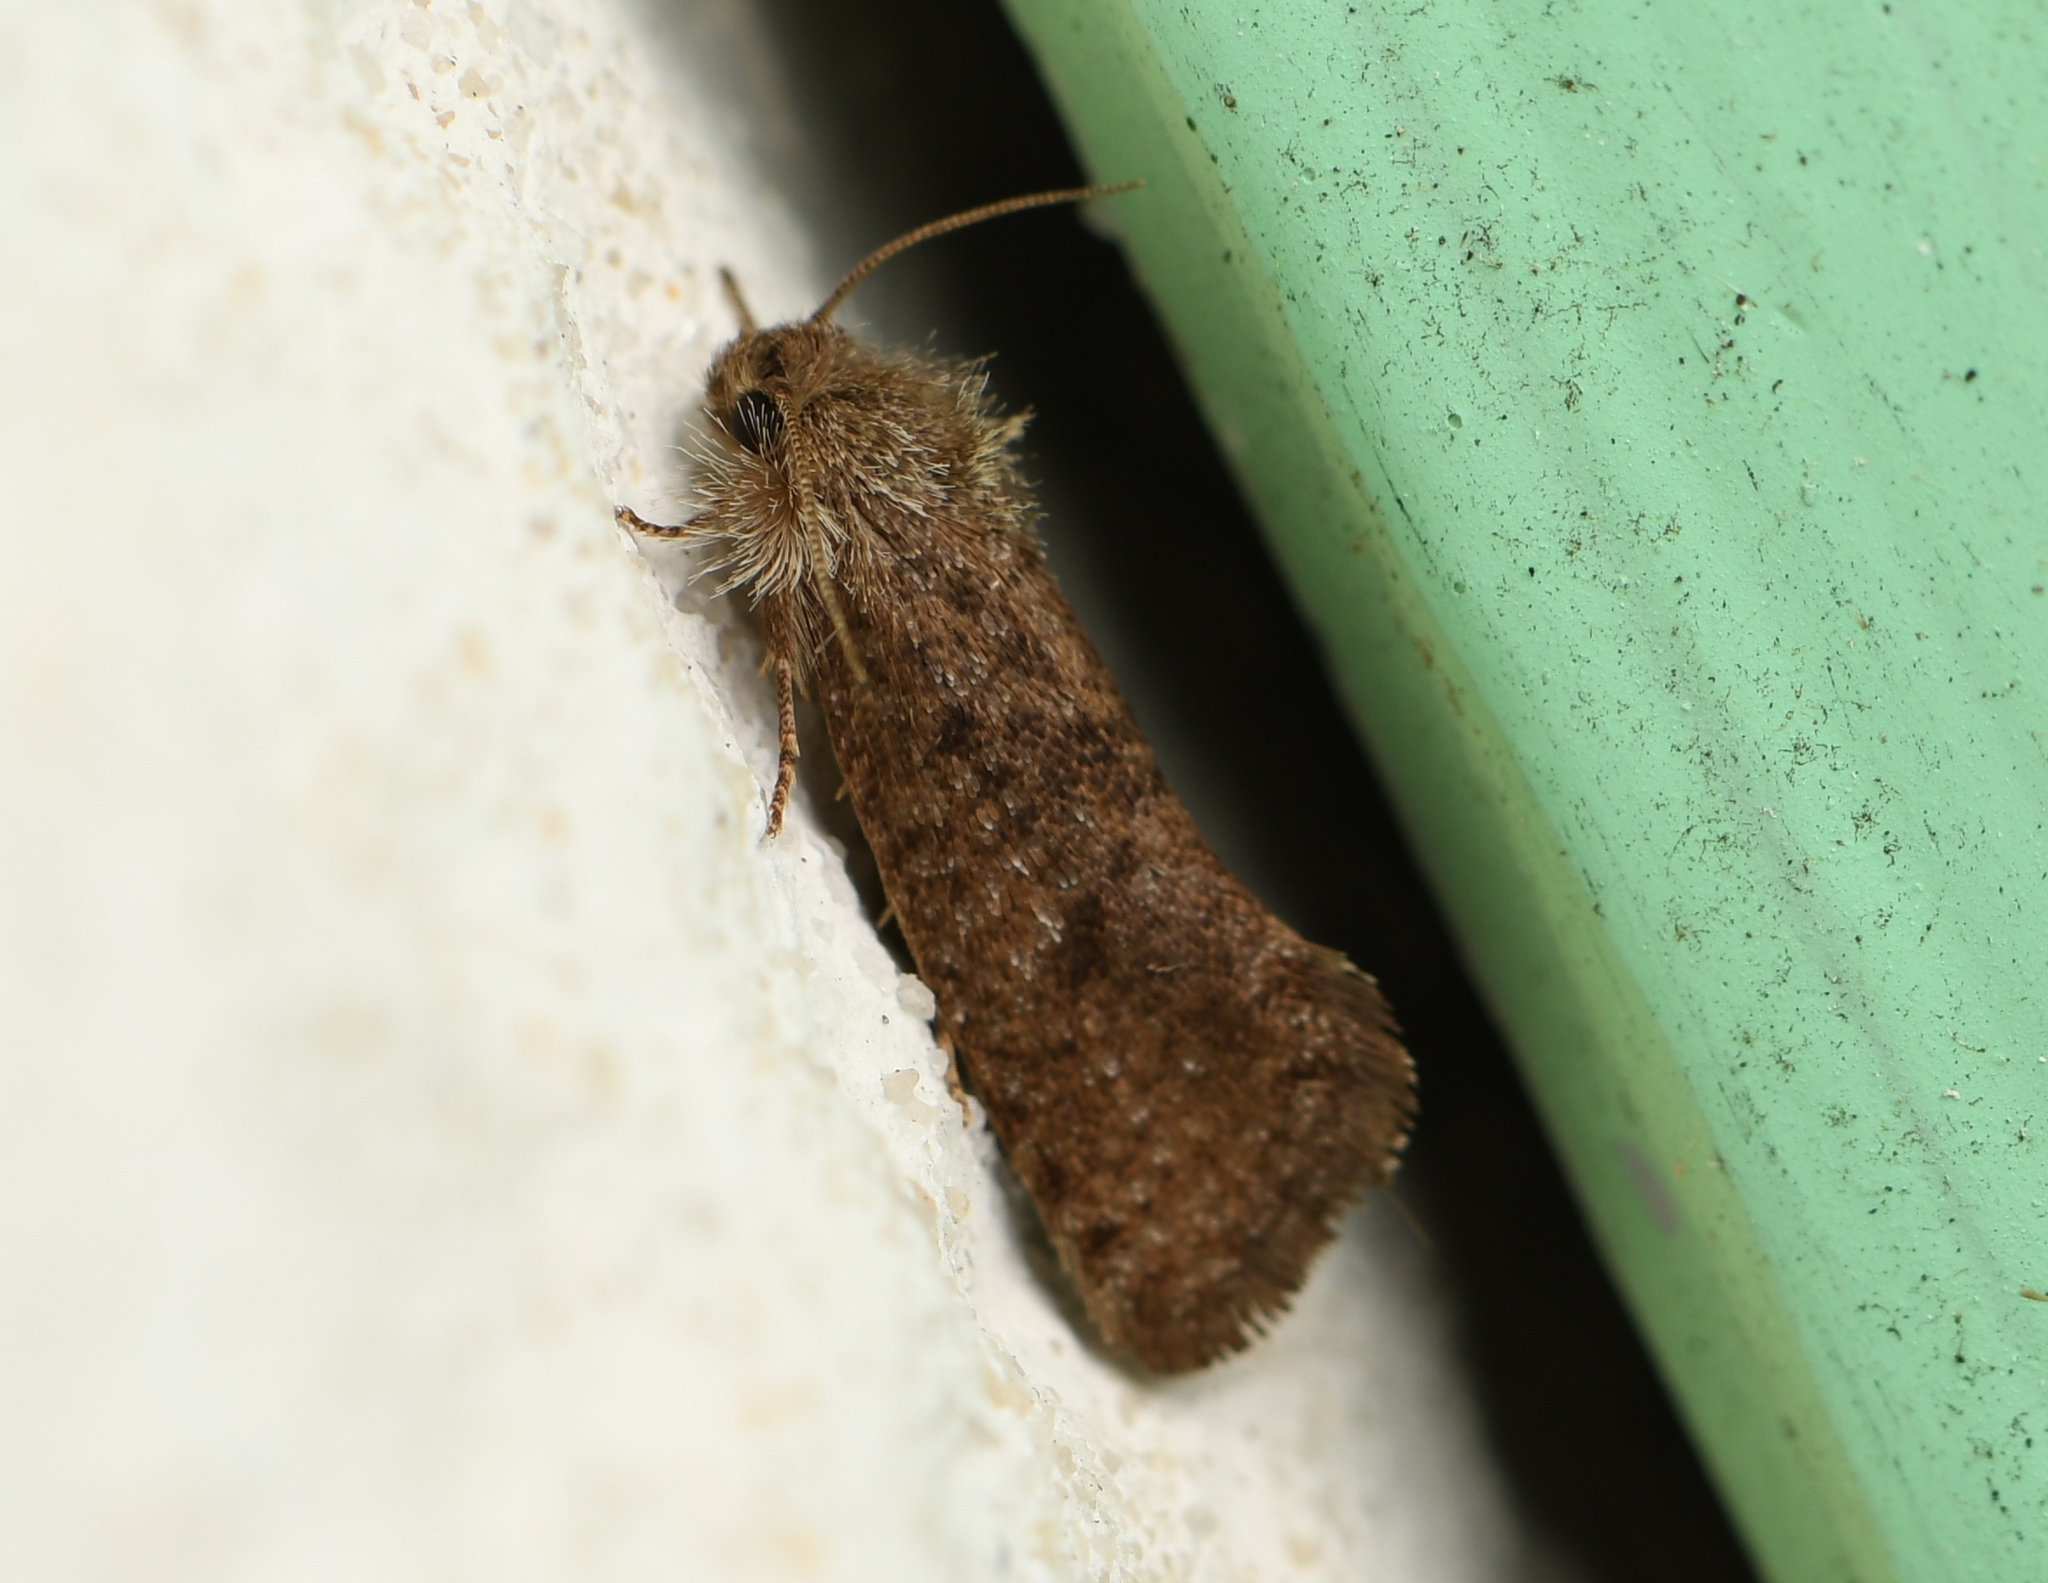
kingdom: Animalia
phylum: Arthropoda
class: Insecta
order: Lepidoptera
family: Tineidae
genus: Acrolophus
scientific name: Acrolophus heppneri
